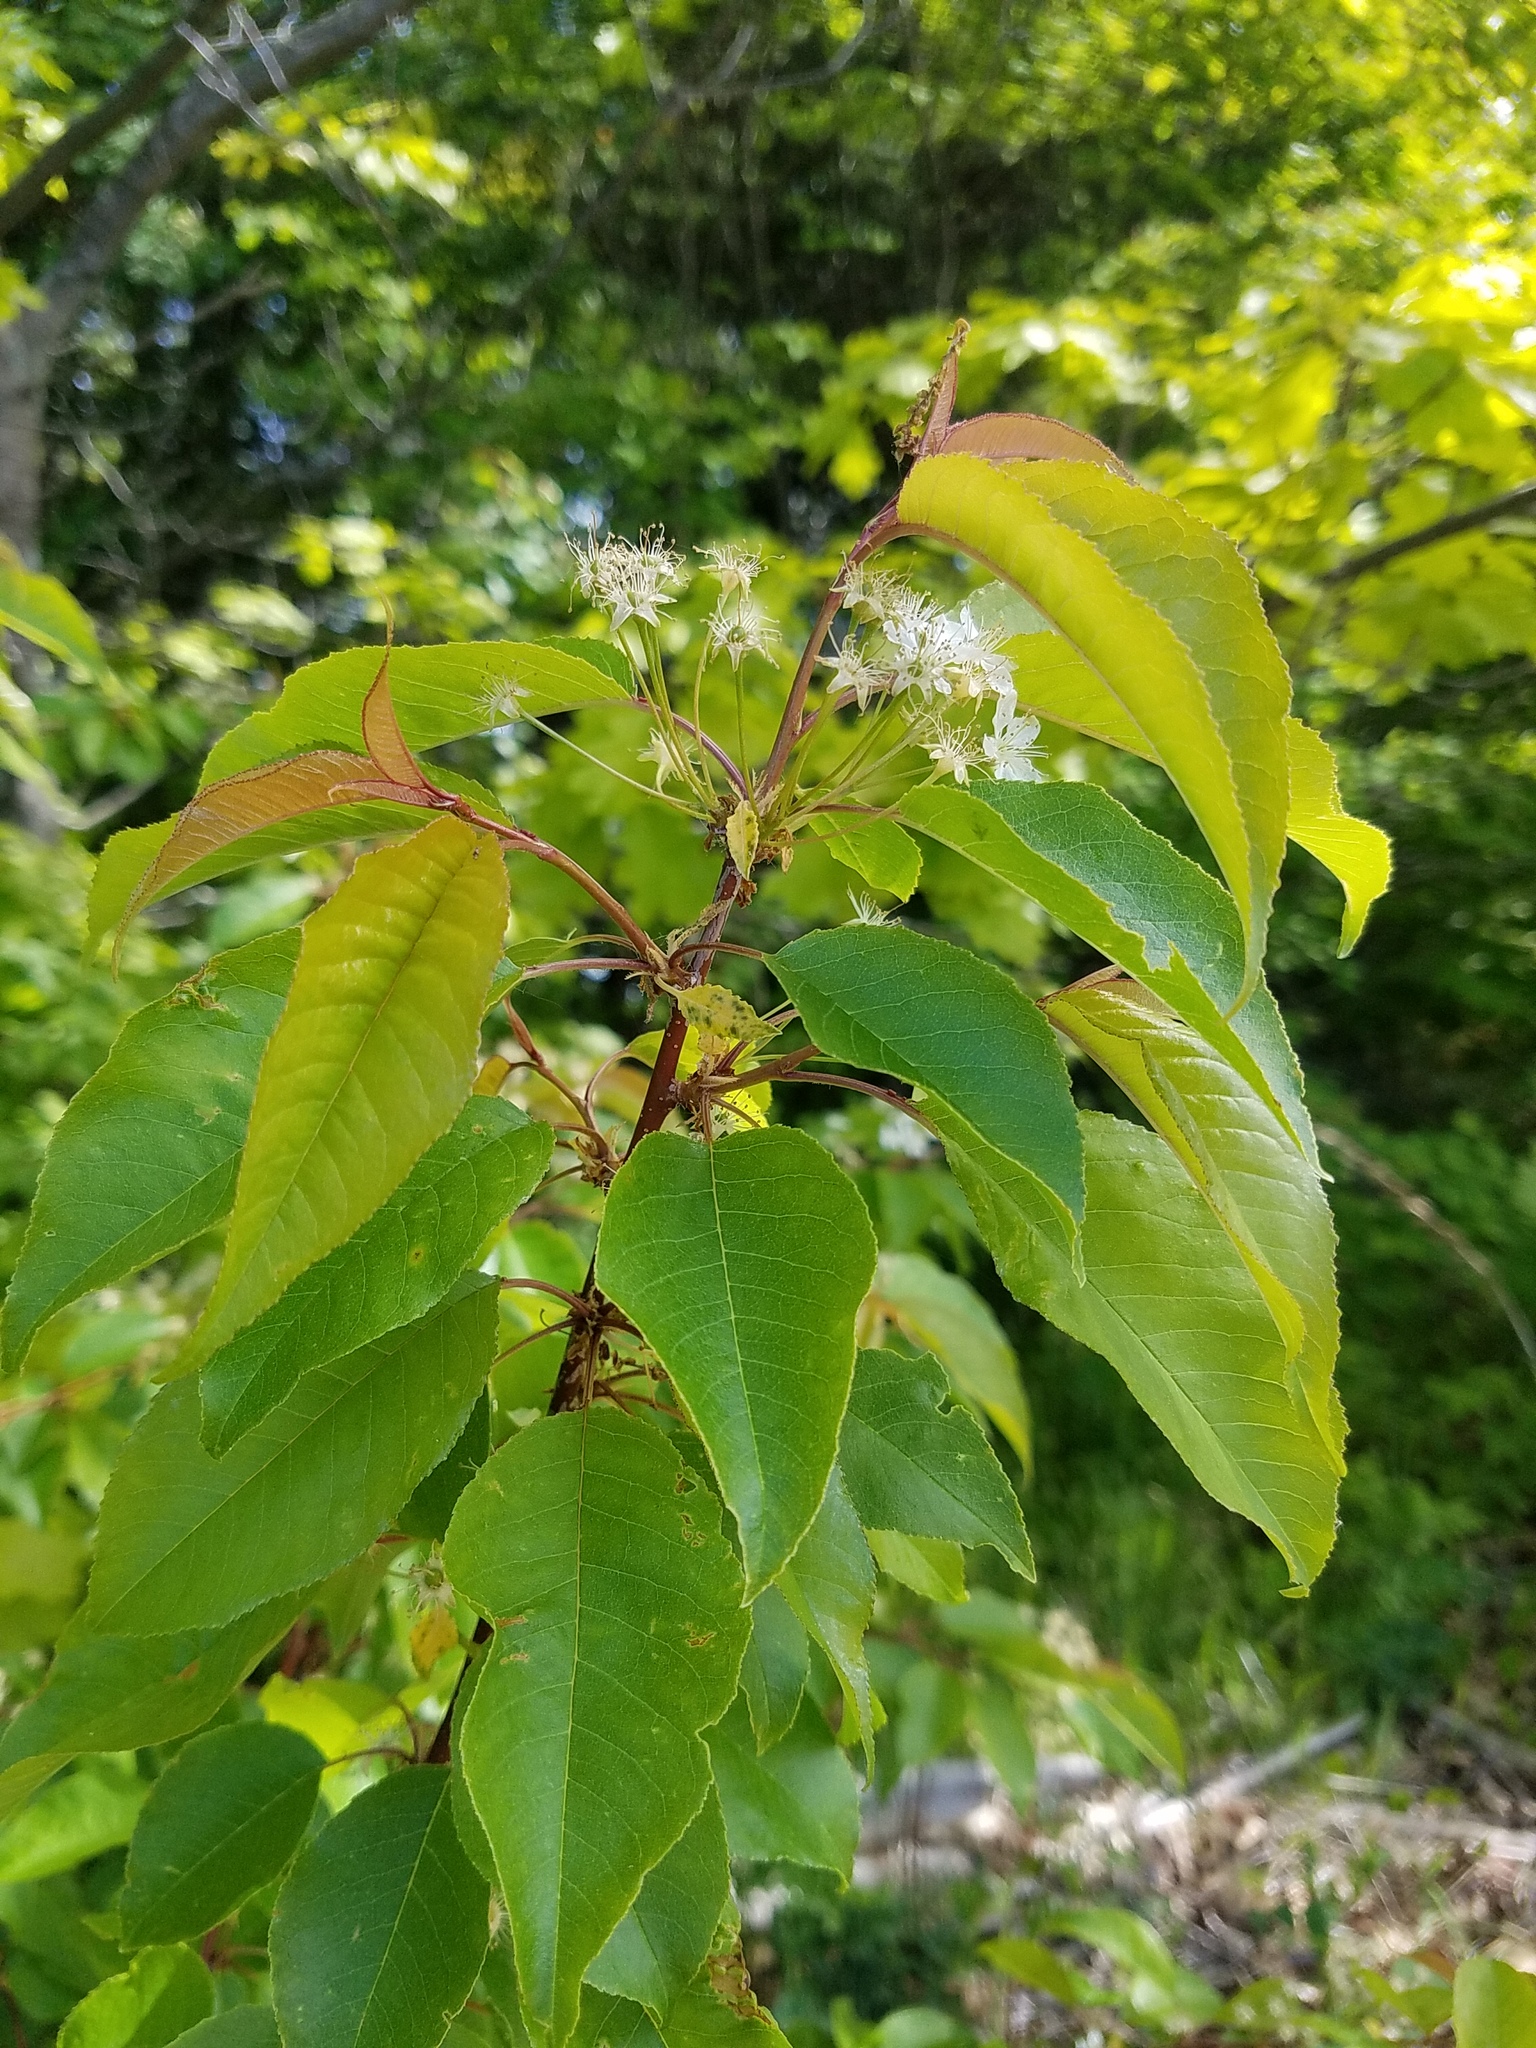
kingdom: Plantae
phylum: Tracheophyta
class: Magnoliopsida
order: Rosales
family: Rosaceae
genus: Prunus
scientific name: Prunus pensylvanica
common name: Pin cherry
